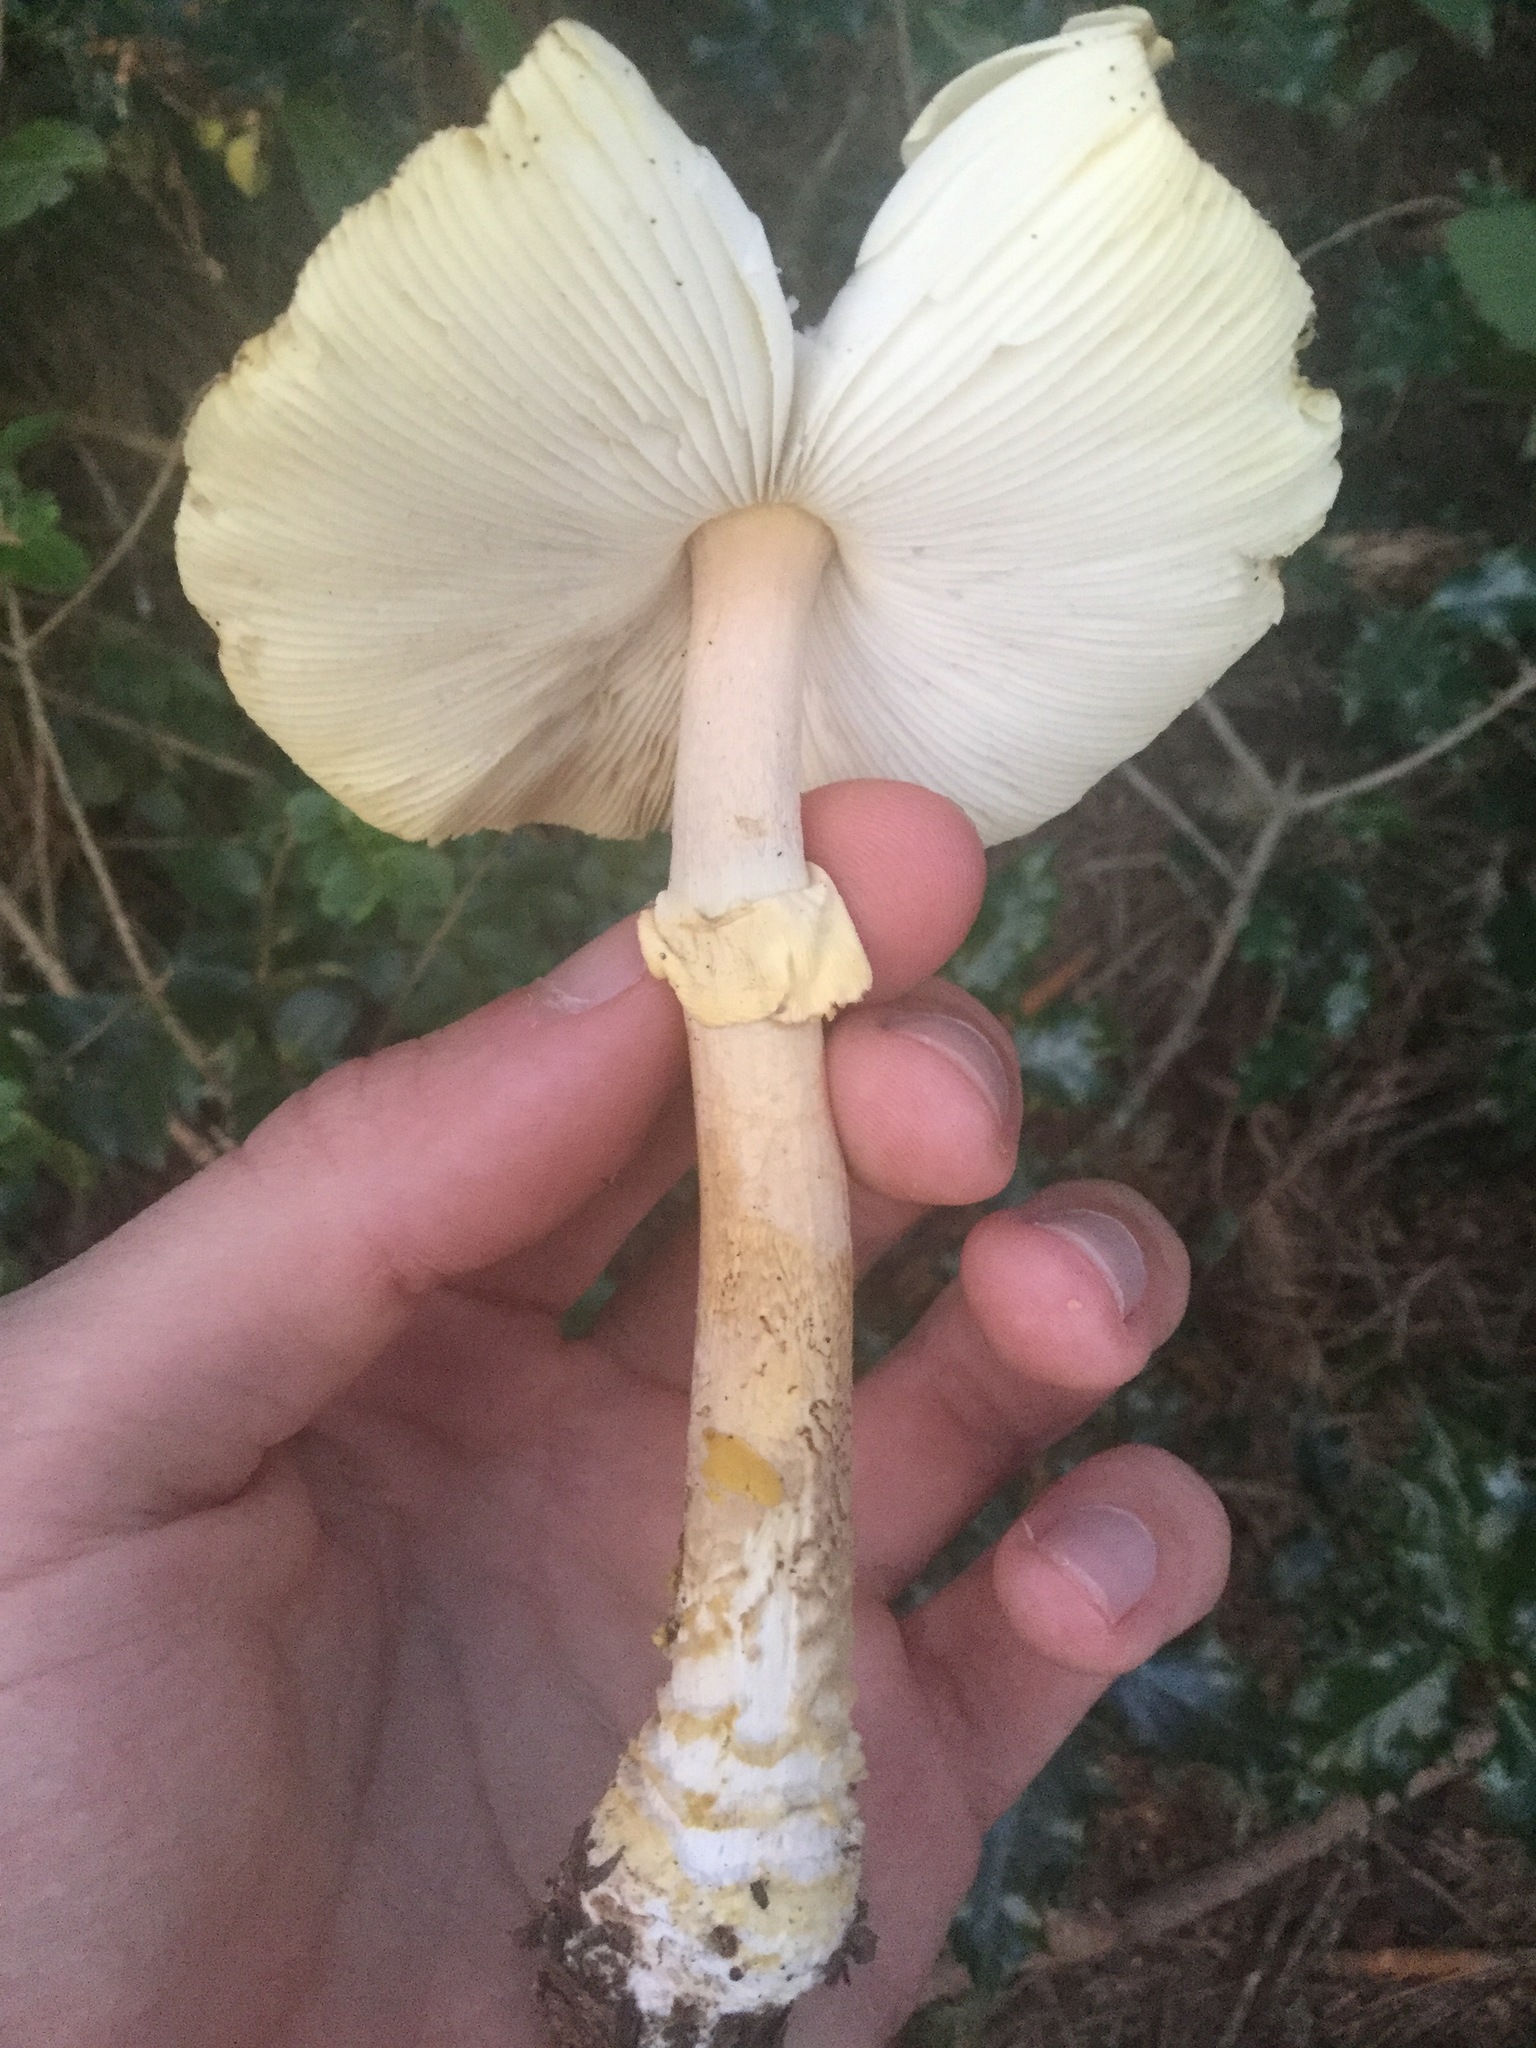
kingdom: Fungi
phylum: Basidiomycota
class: Agaricomycetes
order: Agaricales
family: Amanitaceae
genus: Amanita
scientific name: Amanita augusta
